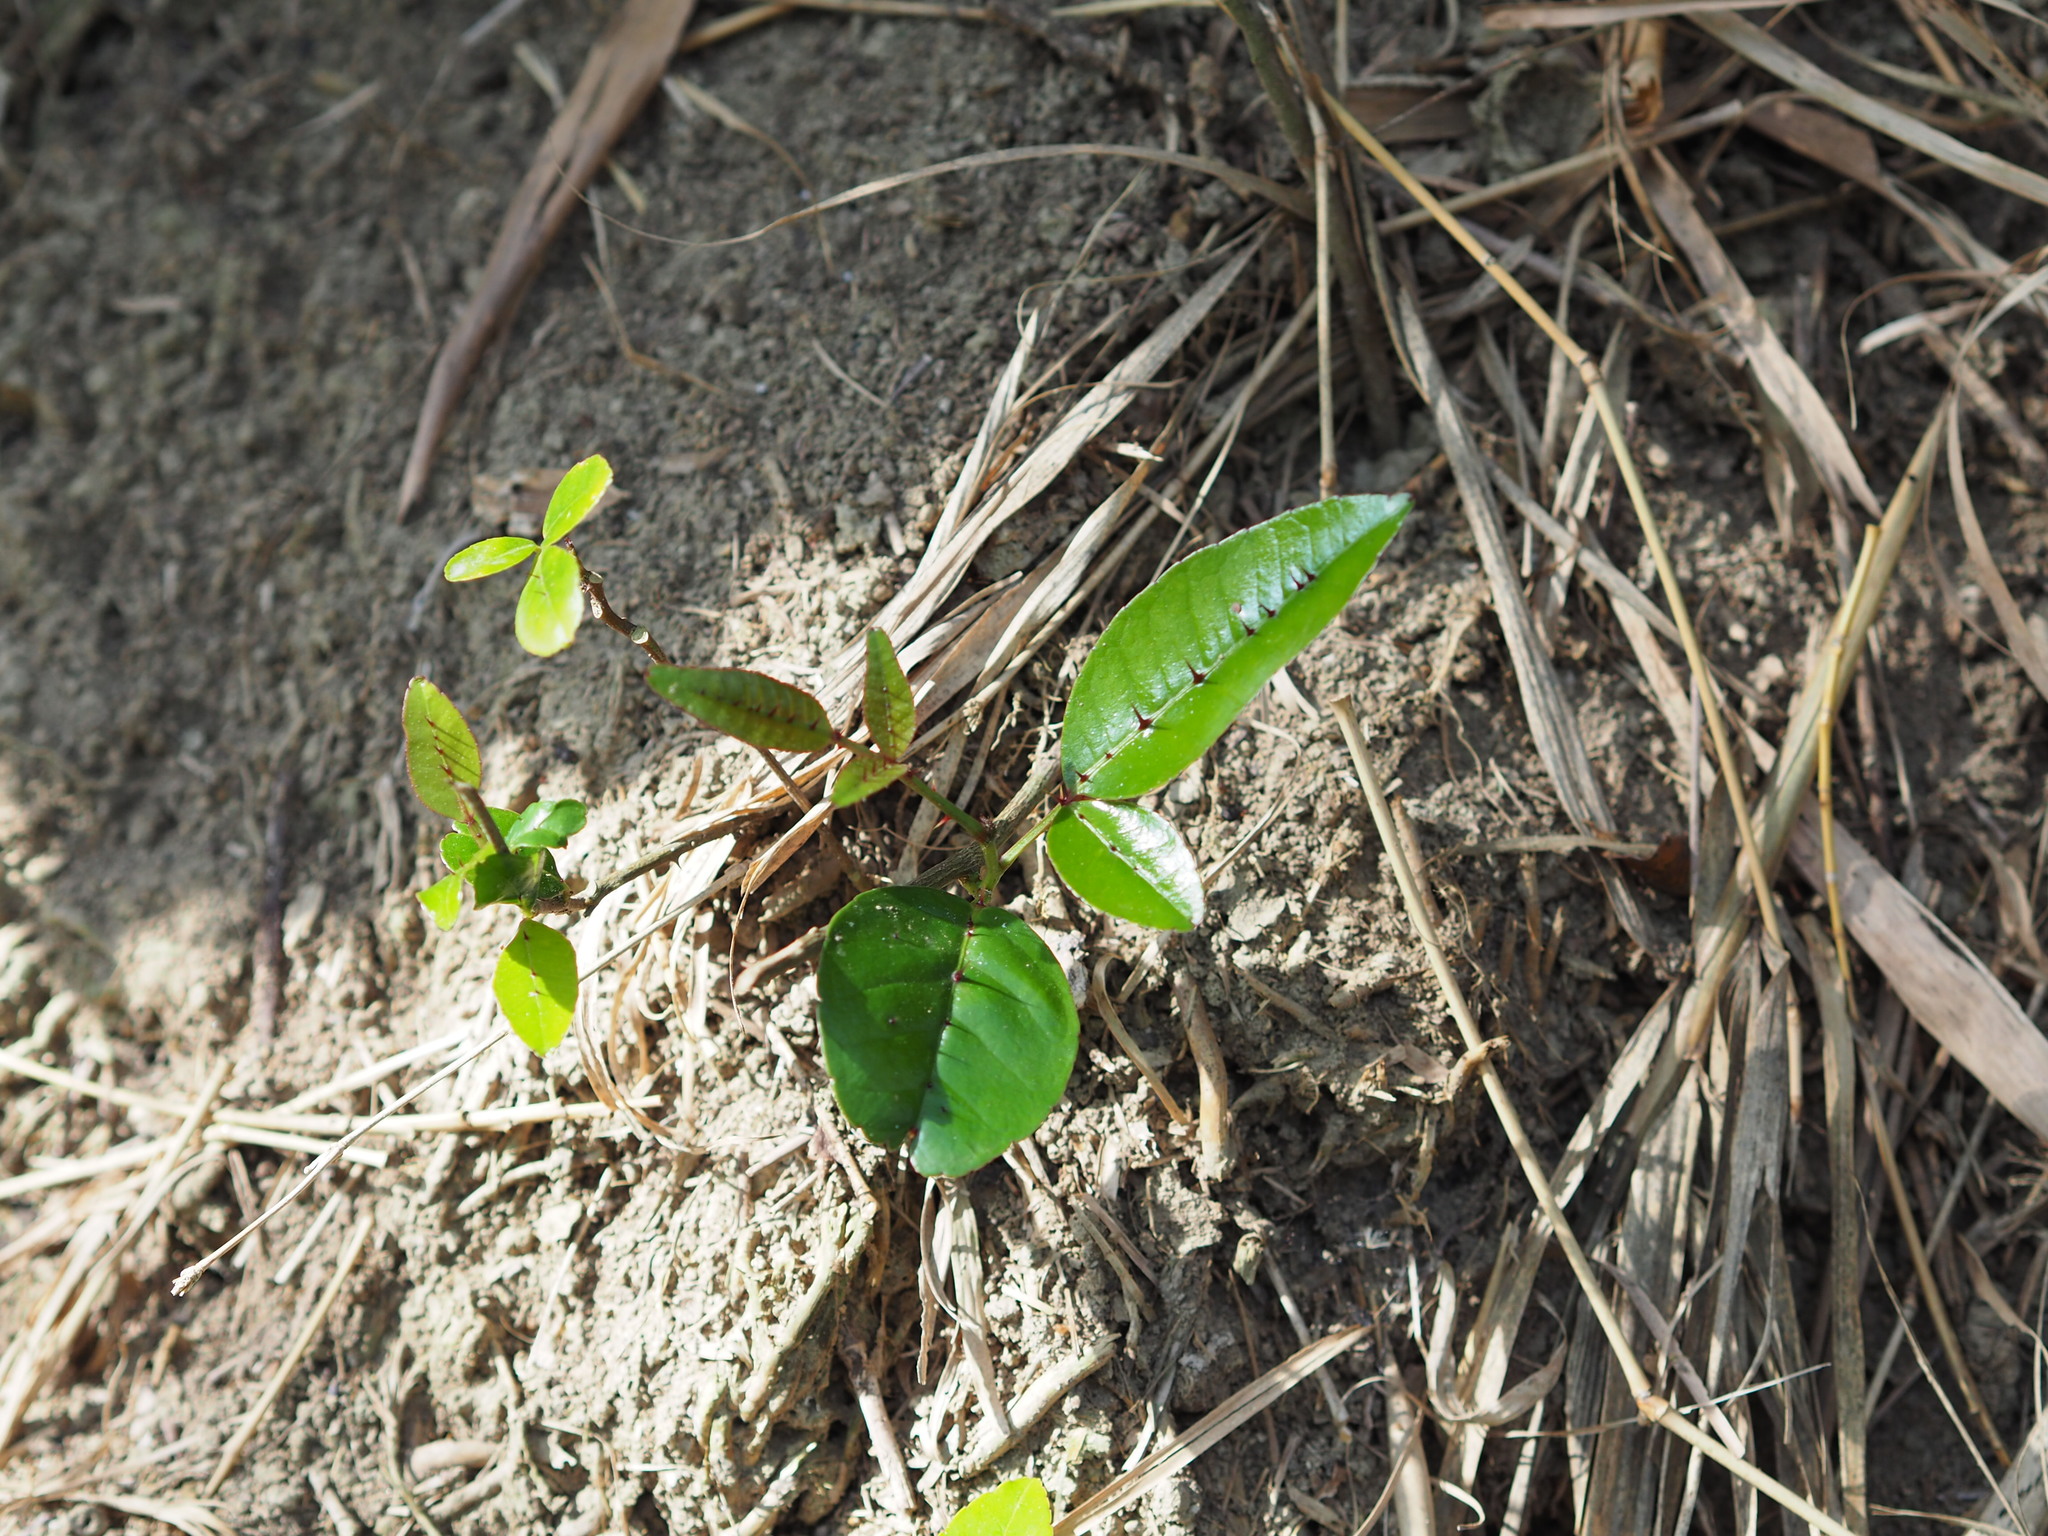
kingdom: Plantae
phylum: Tracheophyta
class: Magnoliopsida
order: Sapindales
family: Rutaceae
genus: Zanthoxylum
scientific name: Zanthoxylum nitidum
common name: Shiny-leaf prickly-ash
